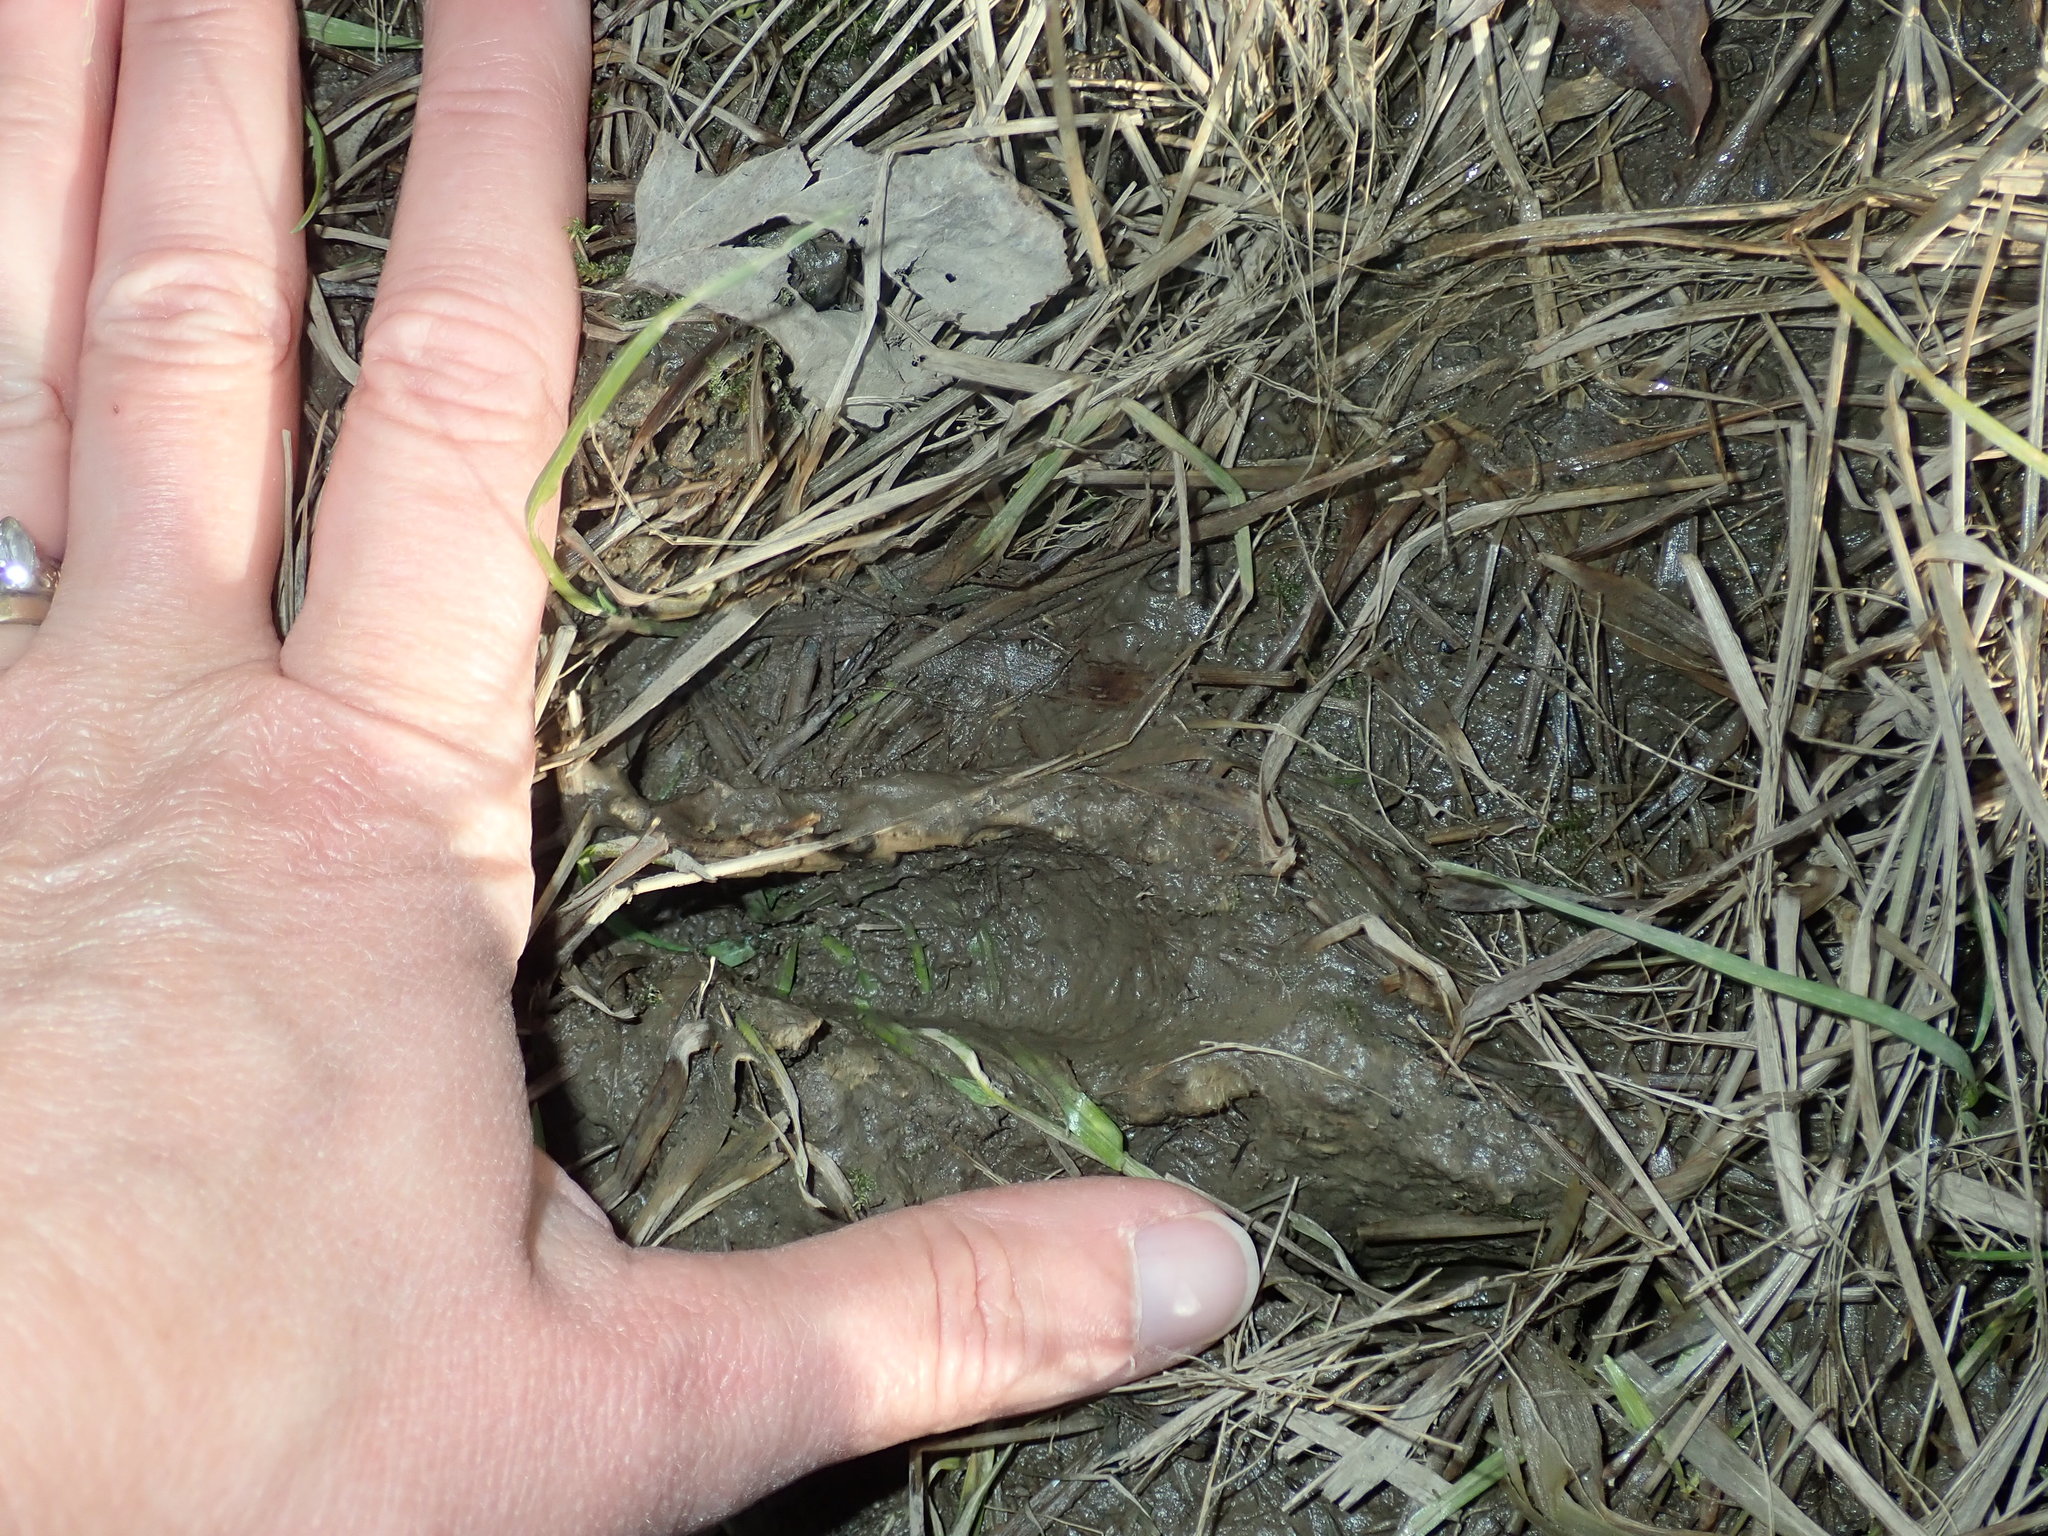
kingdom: Animalia
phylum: Chordata
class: Mammalia
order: Artiodactyla
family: Cervidae
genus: Odocoileus
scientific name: Odocoileus virginianus
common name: White-tailed deer
